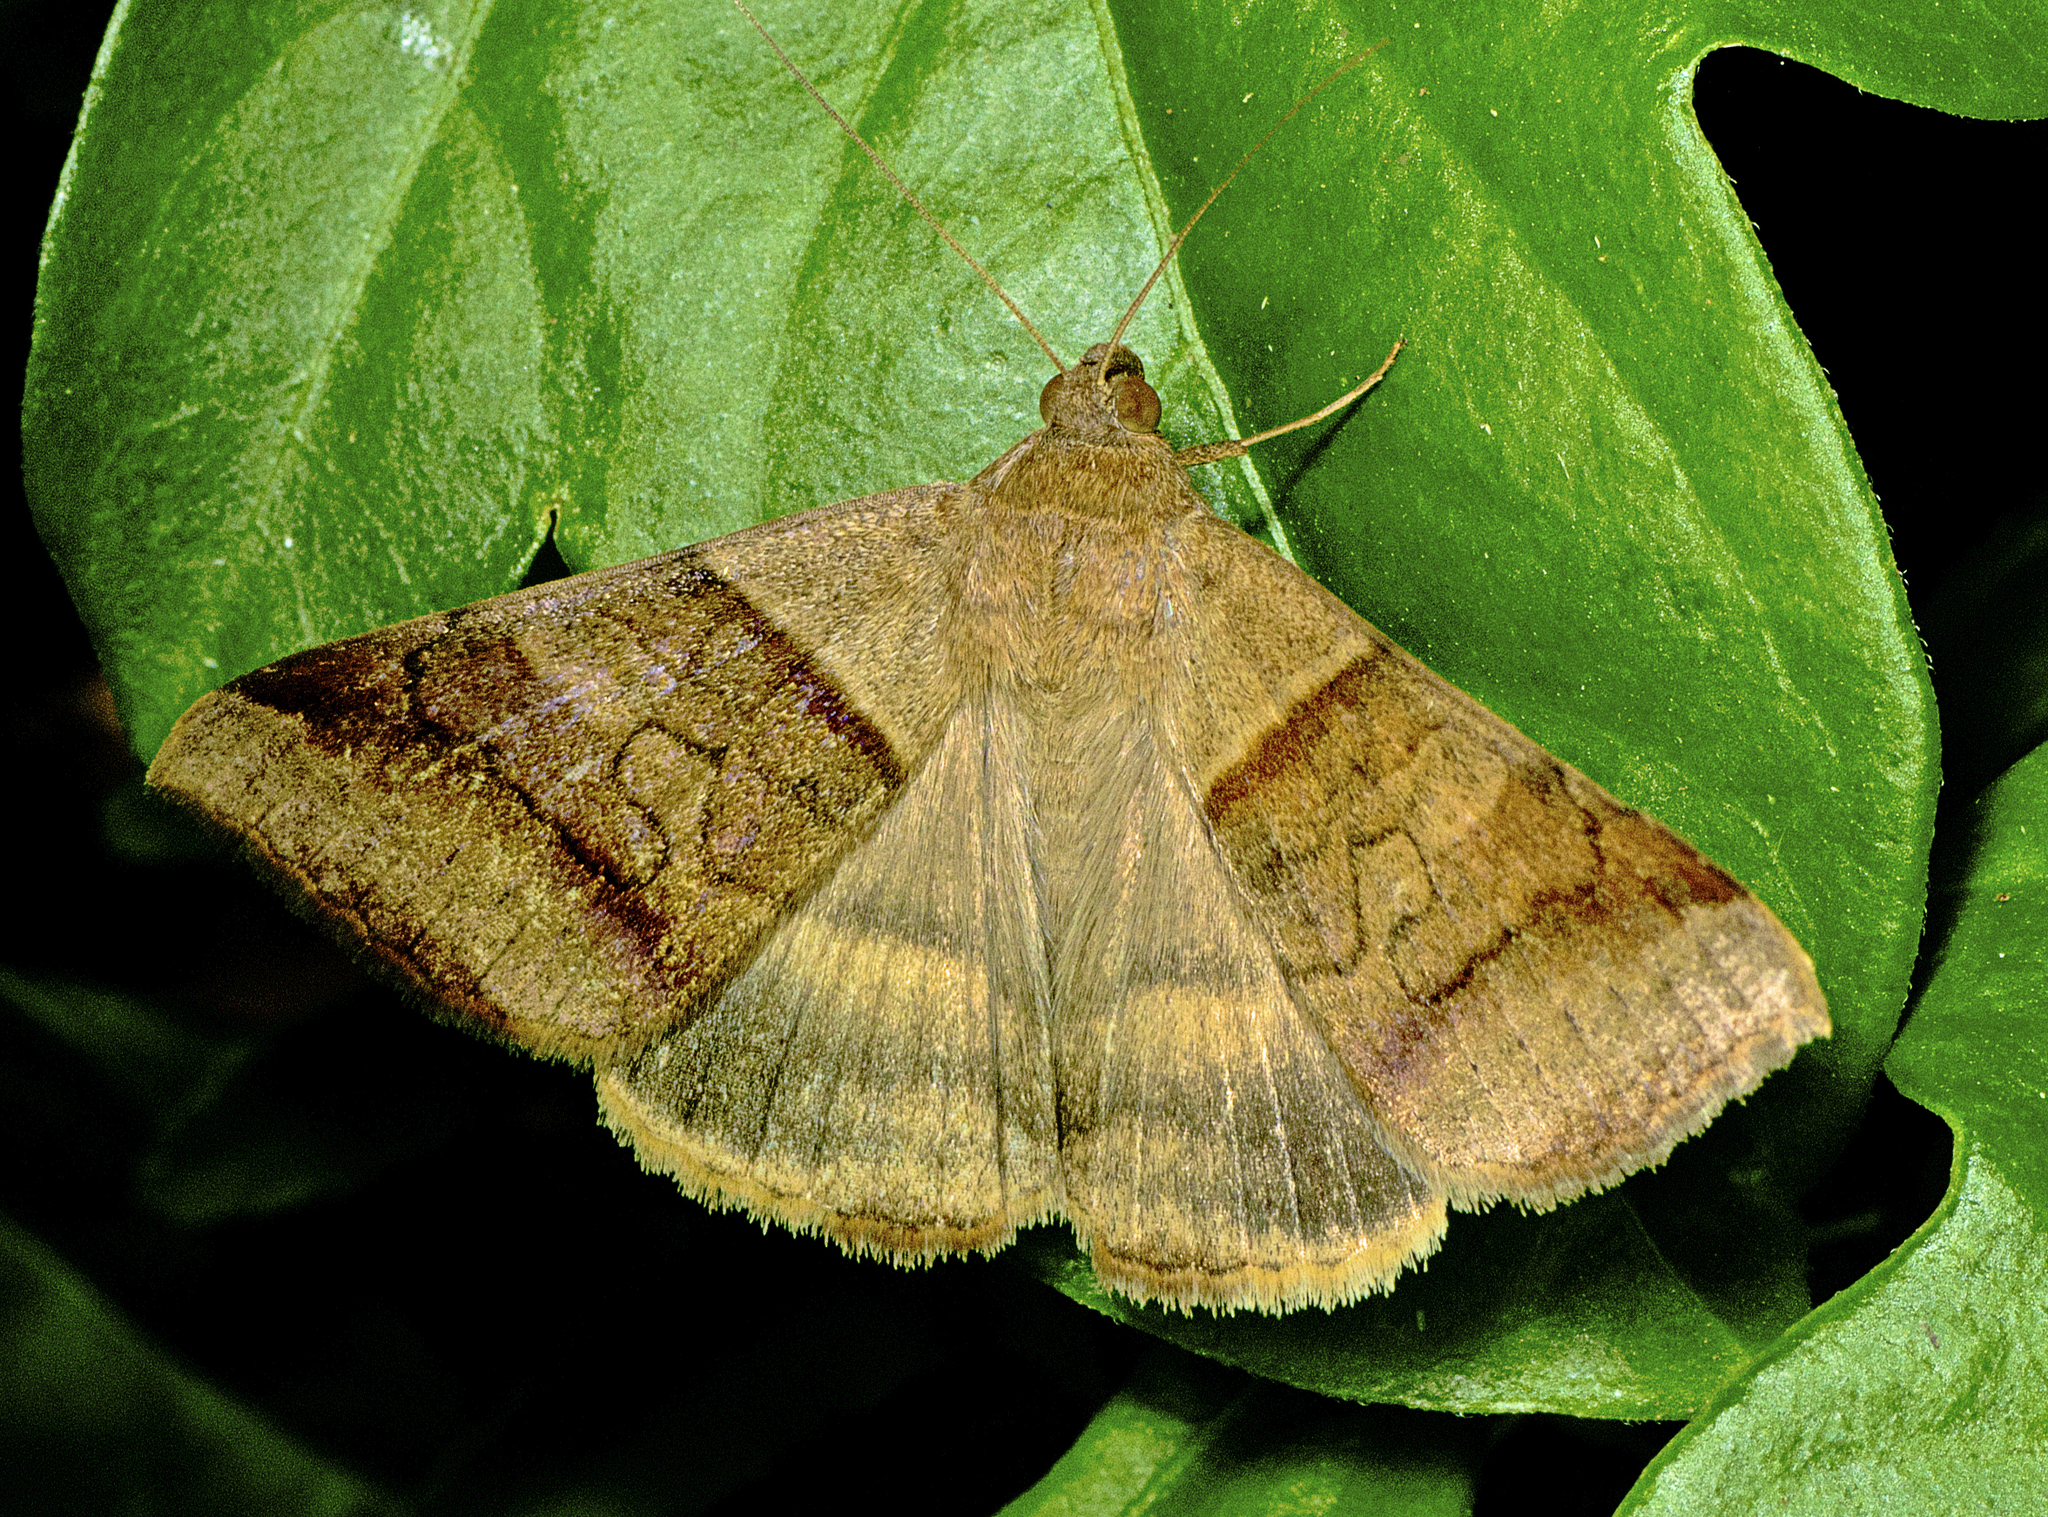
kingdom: Animalia
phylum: Arthropoda
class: Insecta
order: Lepidoptera
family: Erebidae
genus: Mocis
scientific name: Mocis trifasciata
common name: Triple-barred
